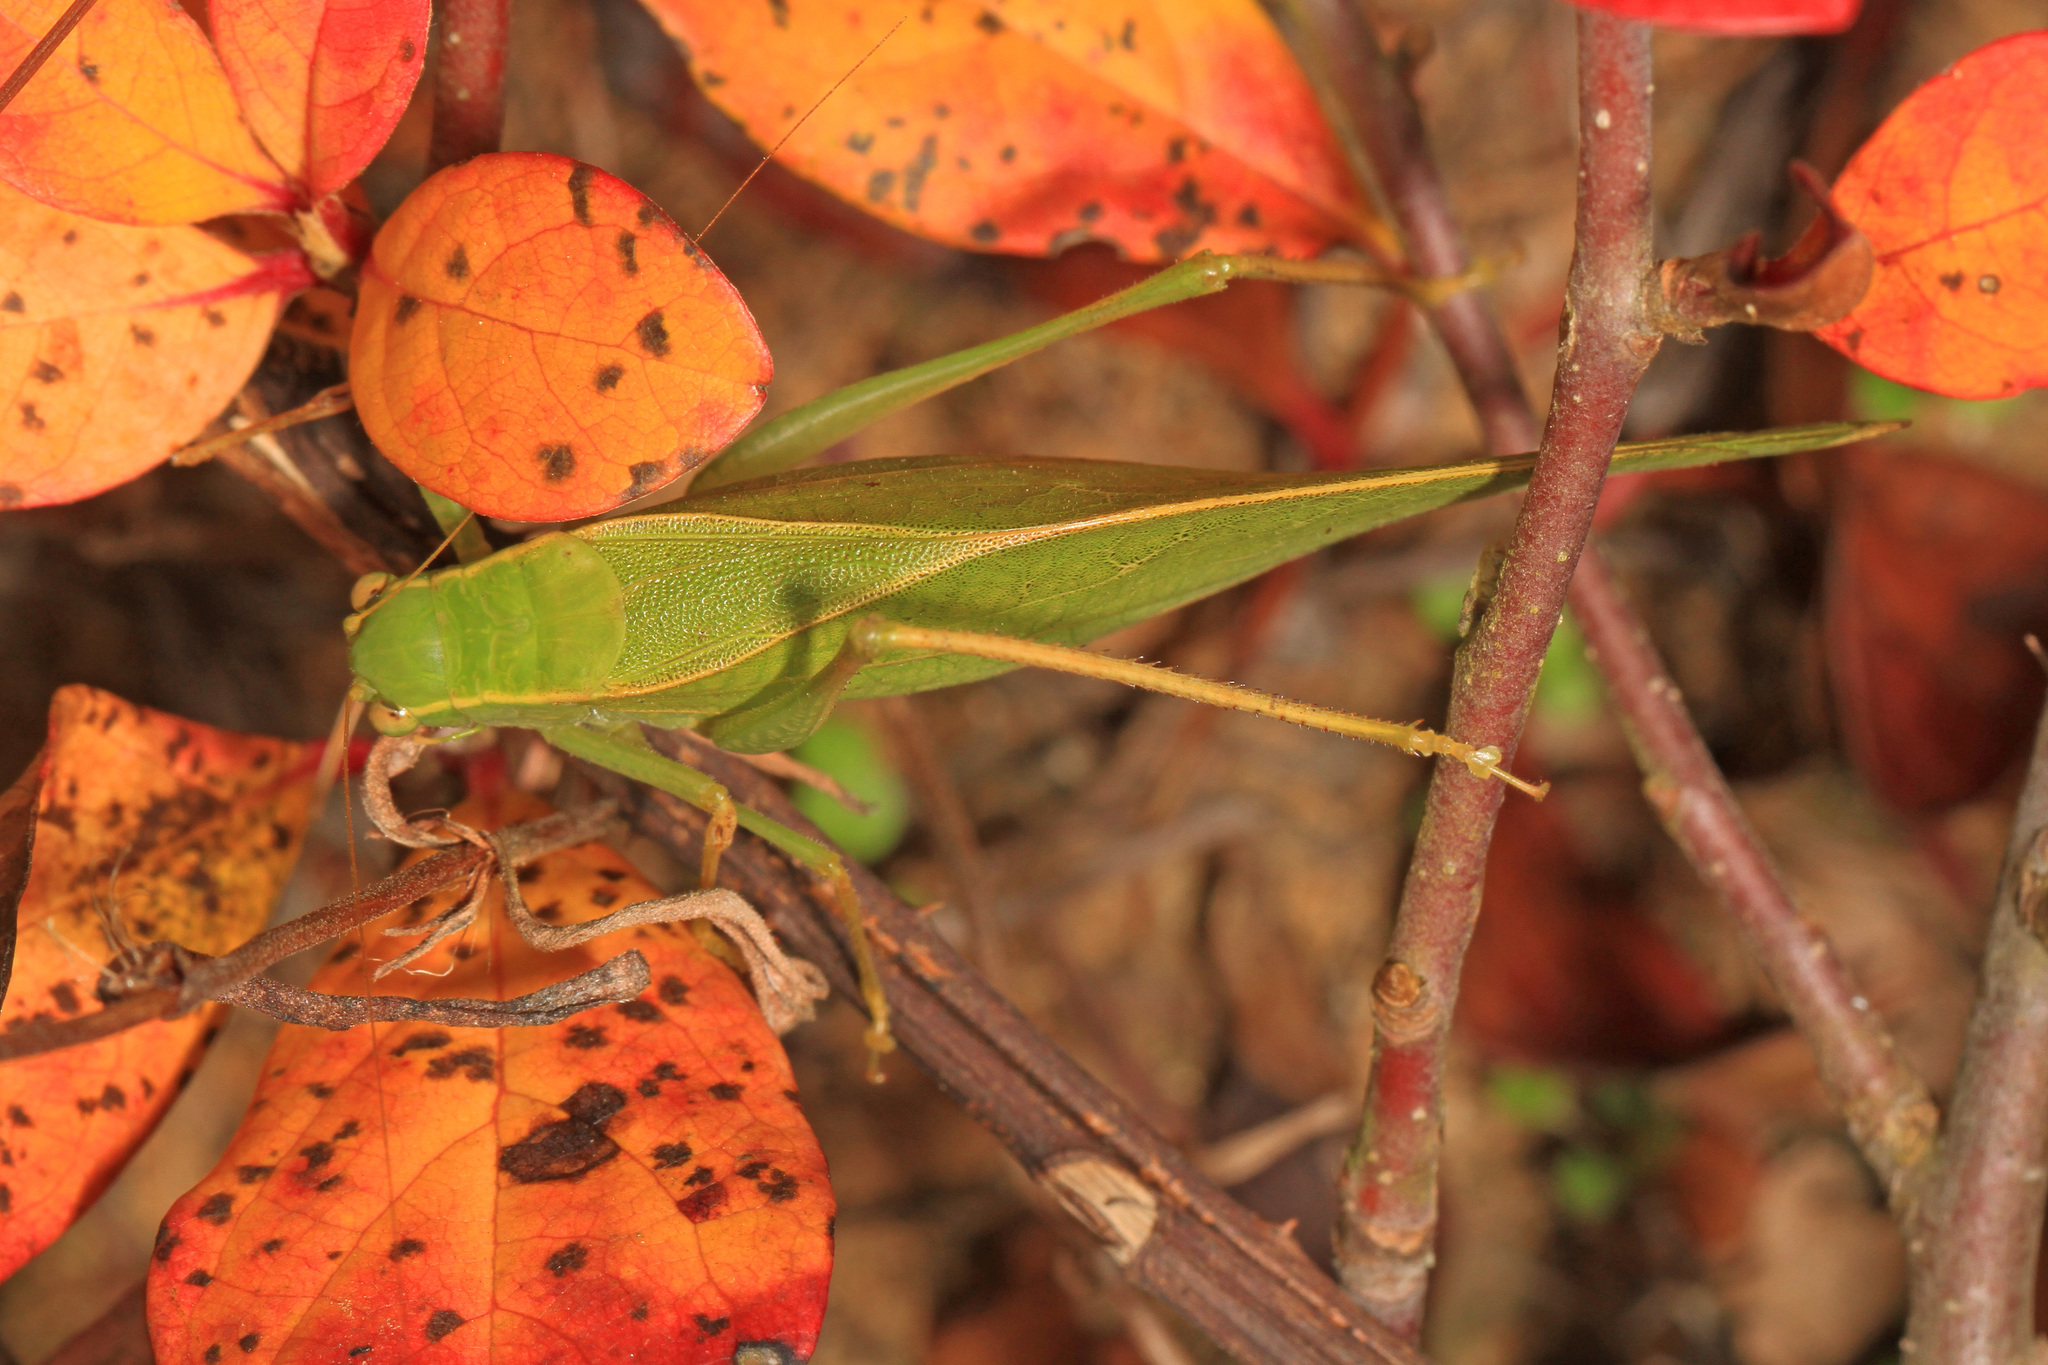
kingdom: Animalia
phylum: Arthropoda
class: Insecta
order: Orthoptera
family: Tettigoniidae
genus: Microcentrum
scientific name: Microcentrum retinerve
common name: Angular-winged katydid
